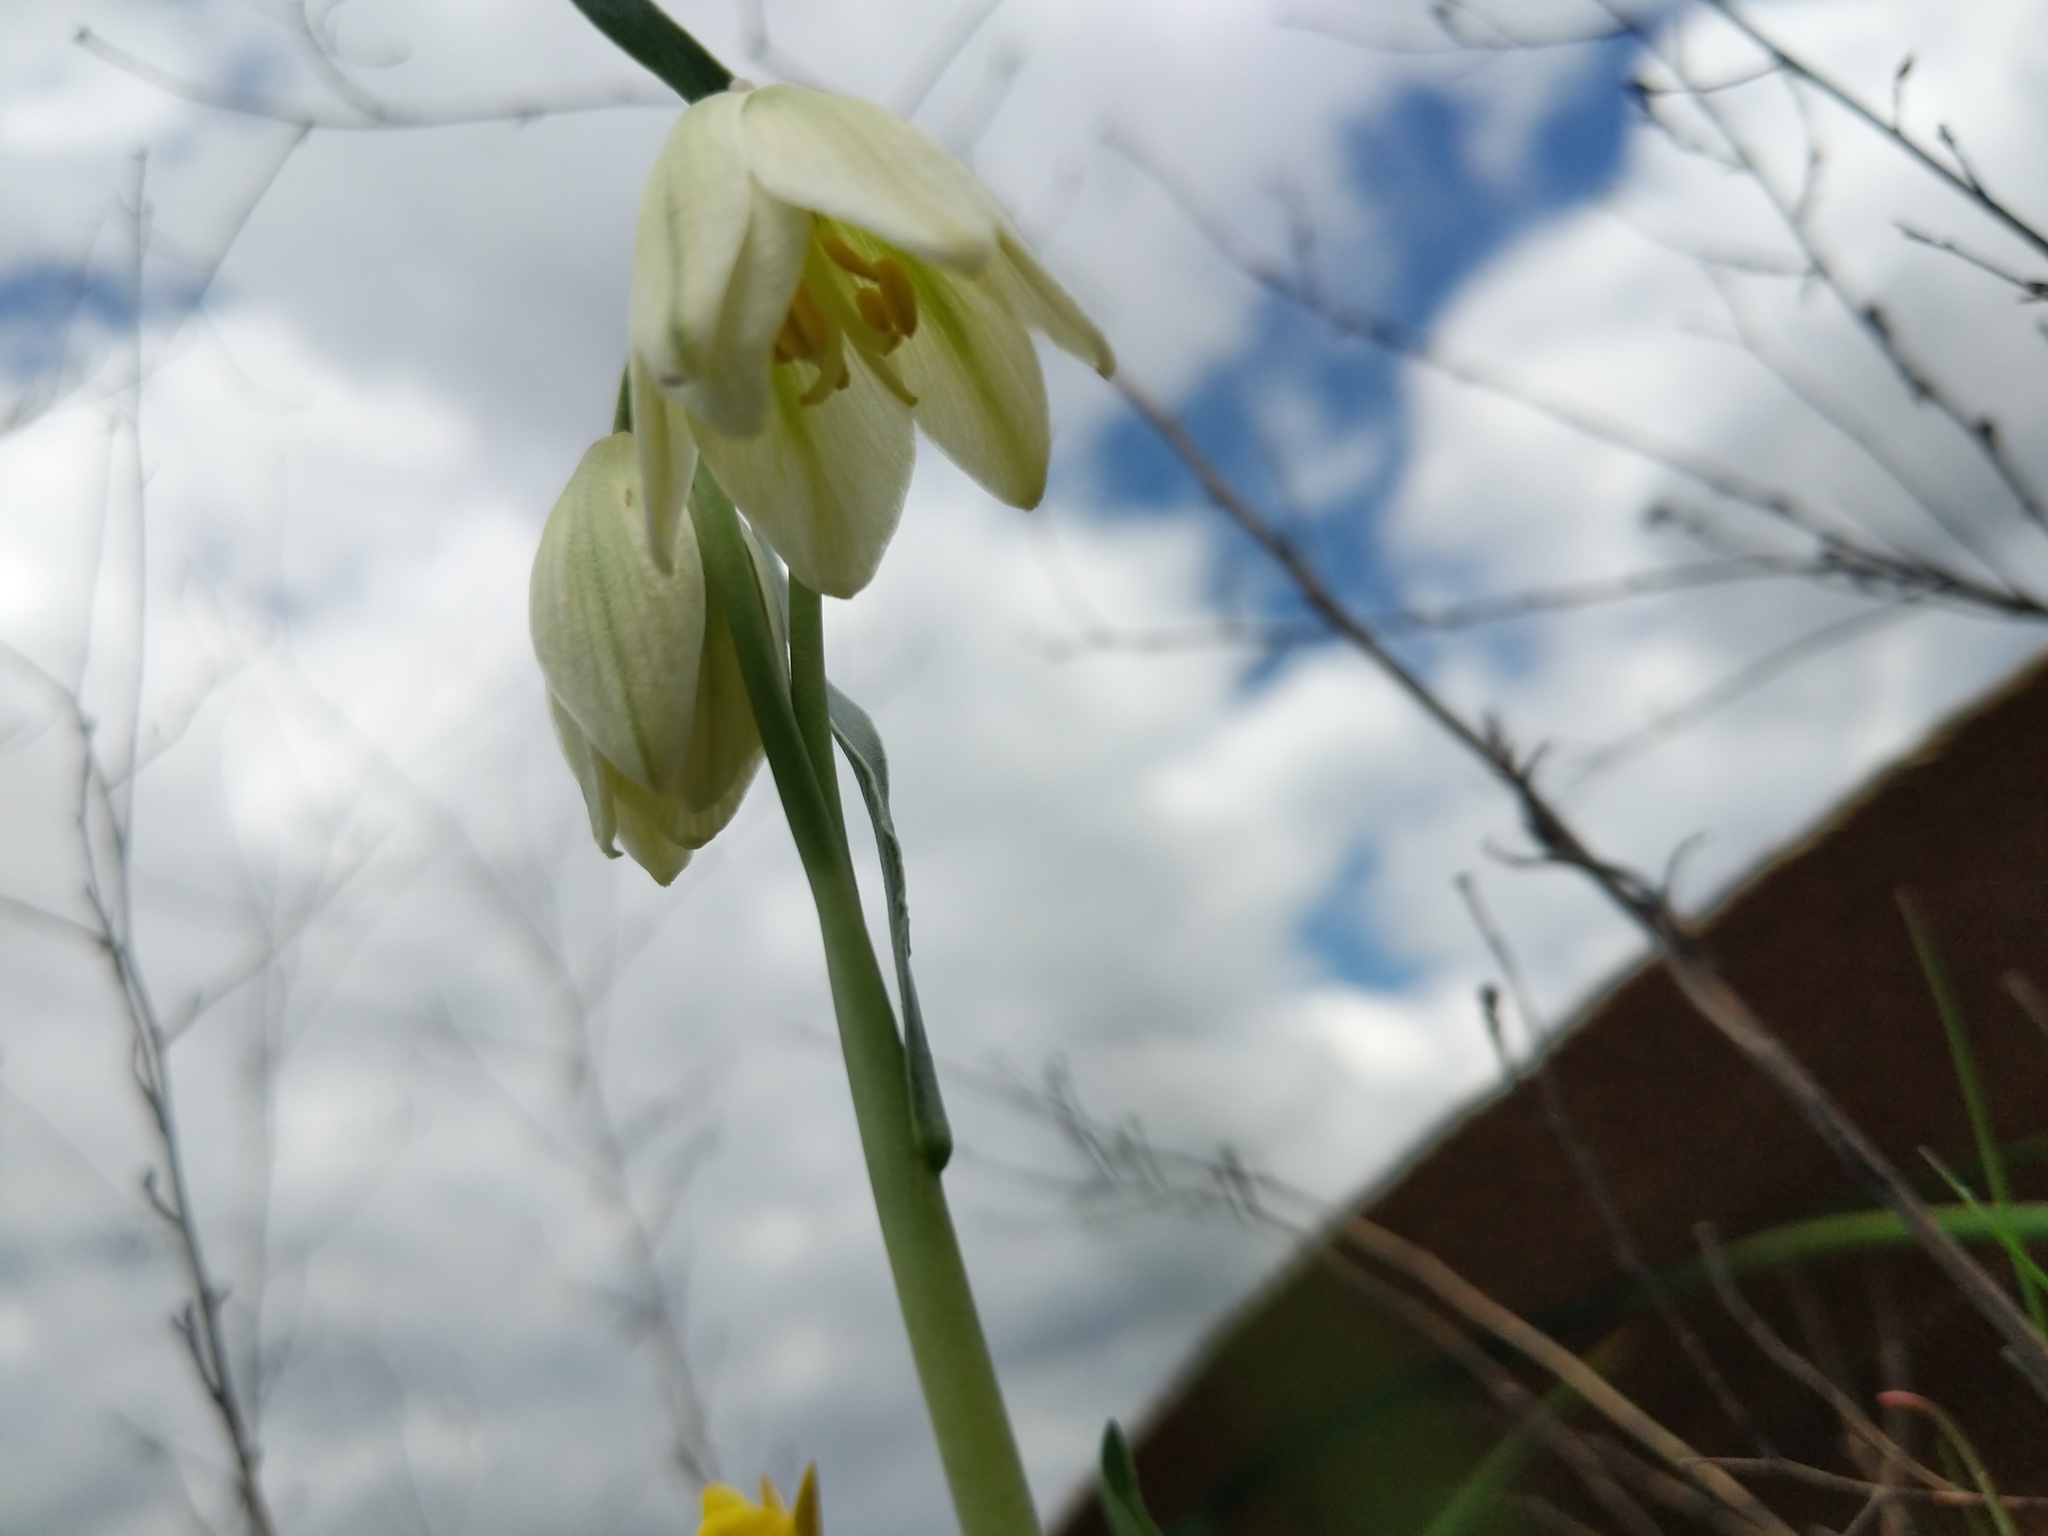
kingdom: Plantae
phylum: Tracheophyta
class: Liliopsida
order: Liliales
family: Liliaceae
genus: Fritillaria
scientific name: Fritillaria liliacea
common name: Fragrant fritillary
